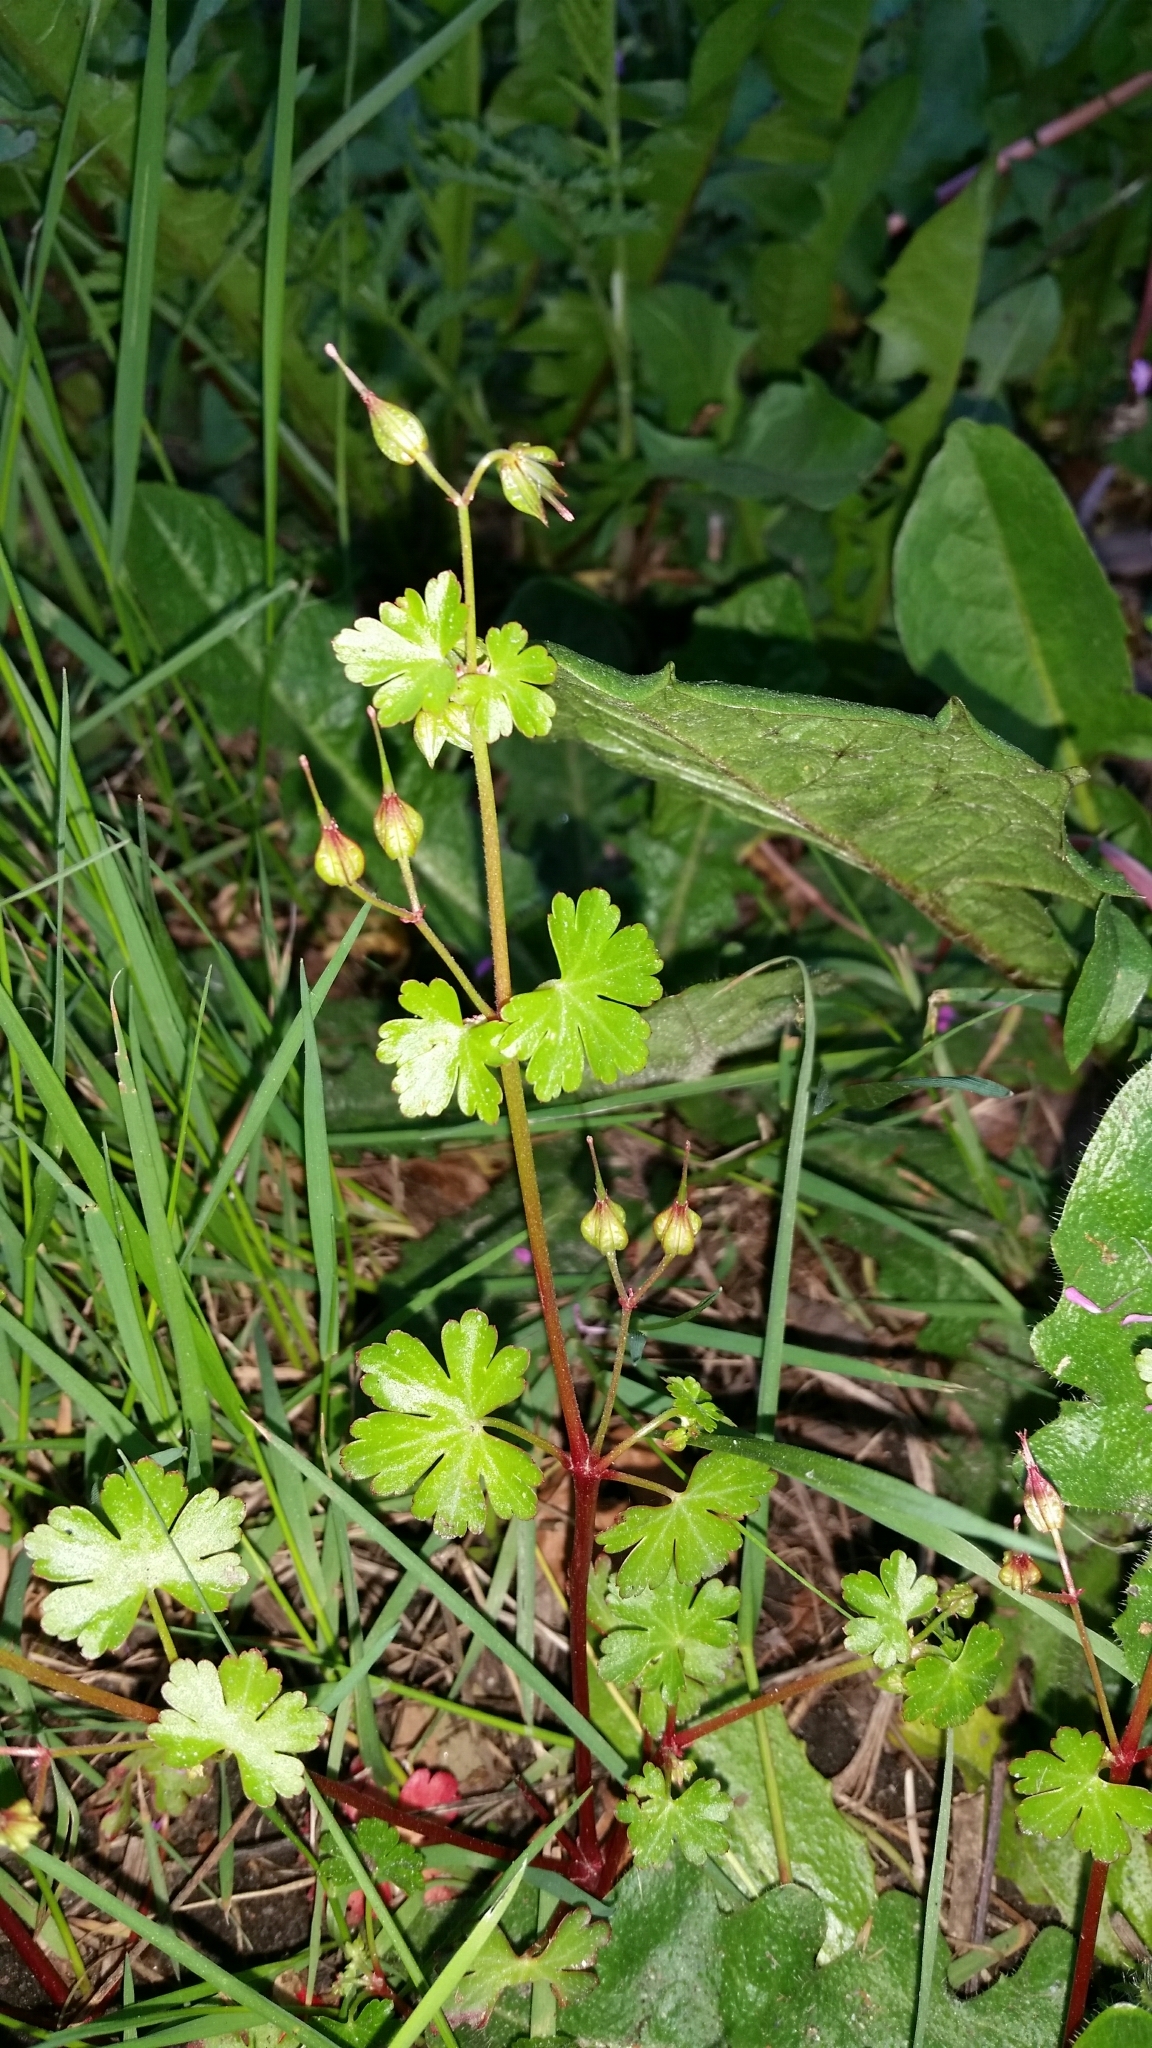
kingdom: Plantae
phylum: Tracheophyta
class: Magnoliopsida
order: Geraniales
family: Geraniaceae
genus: Geranium
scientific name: Geranium lucidum
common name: Shining crane's-bill
